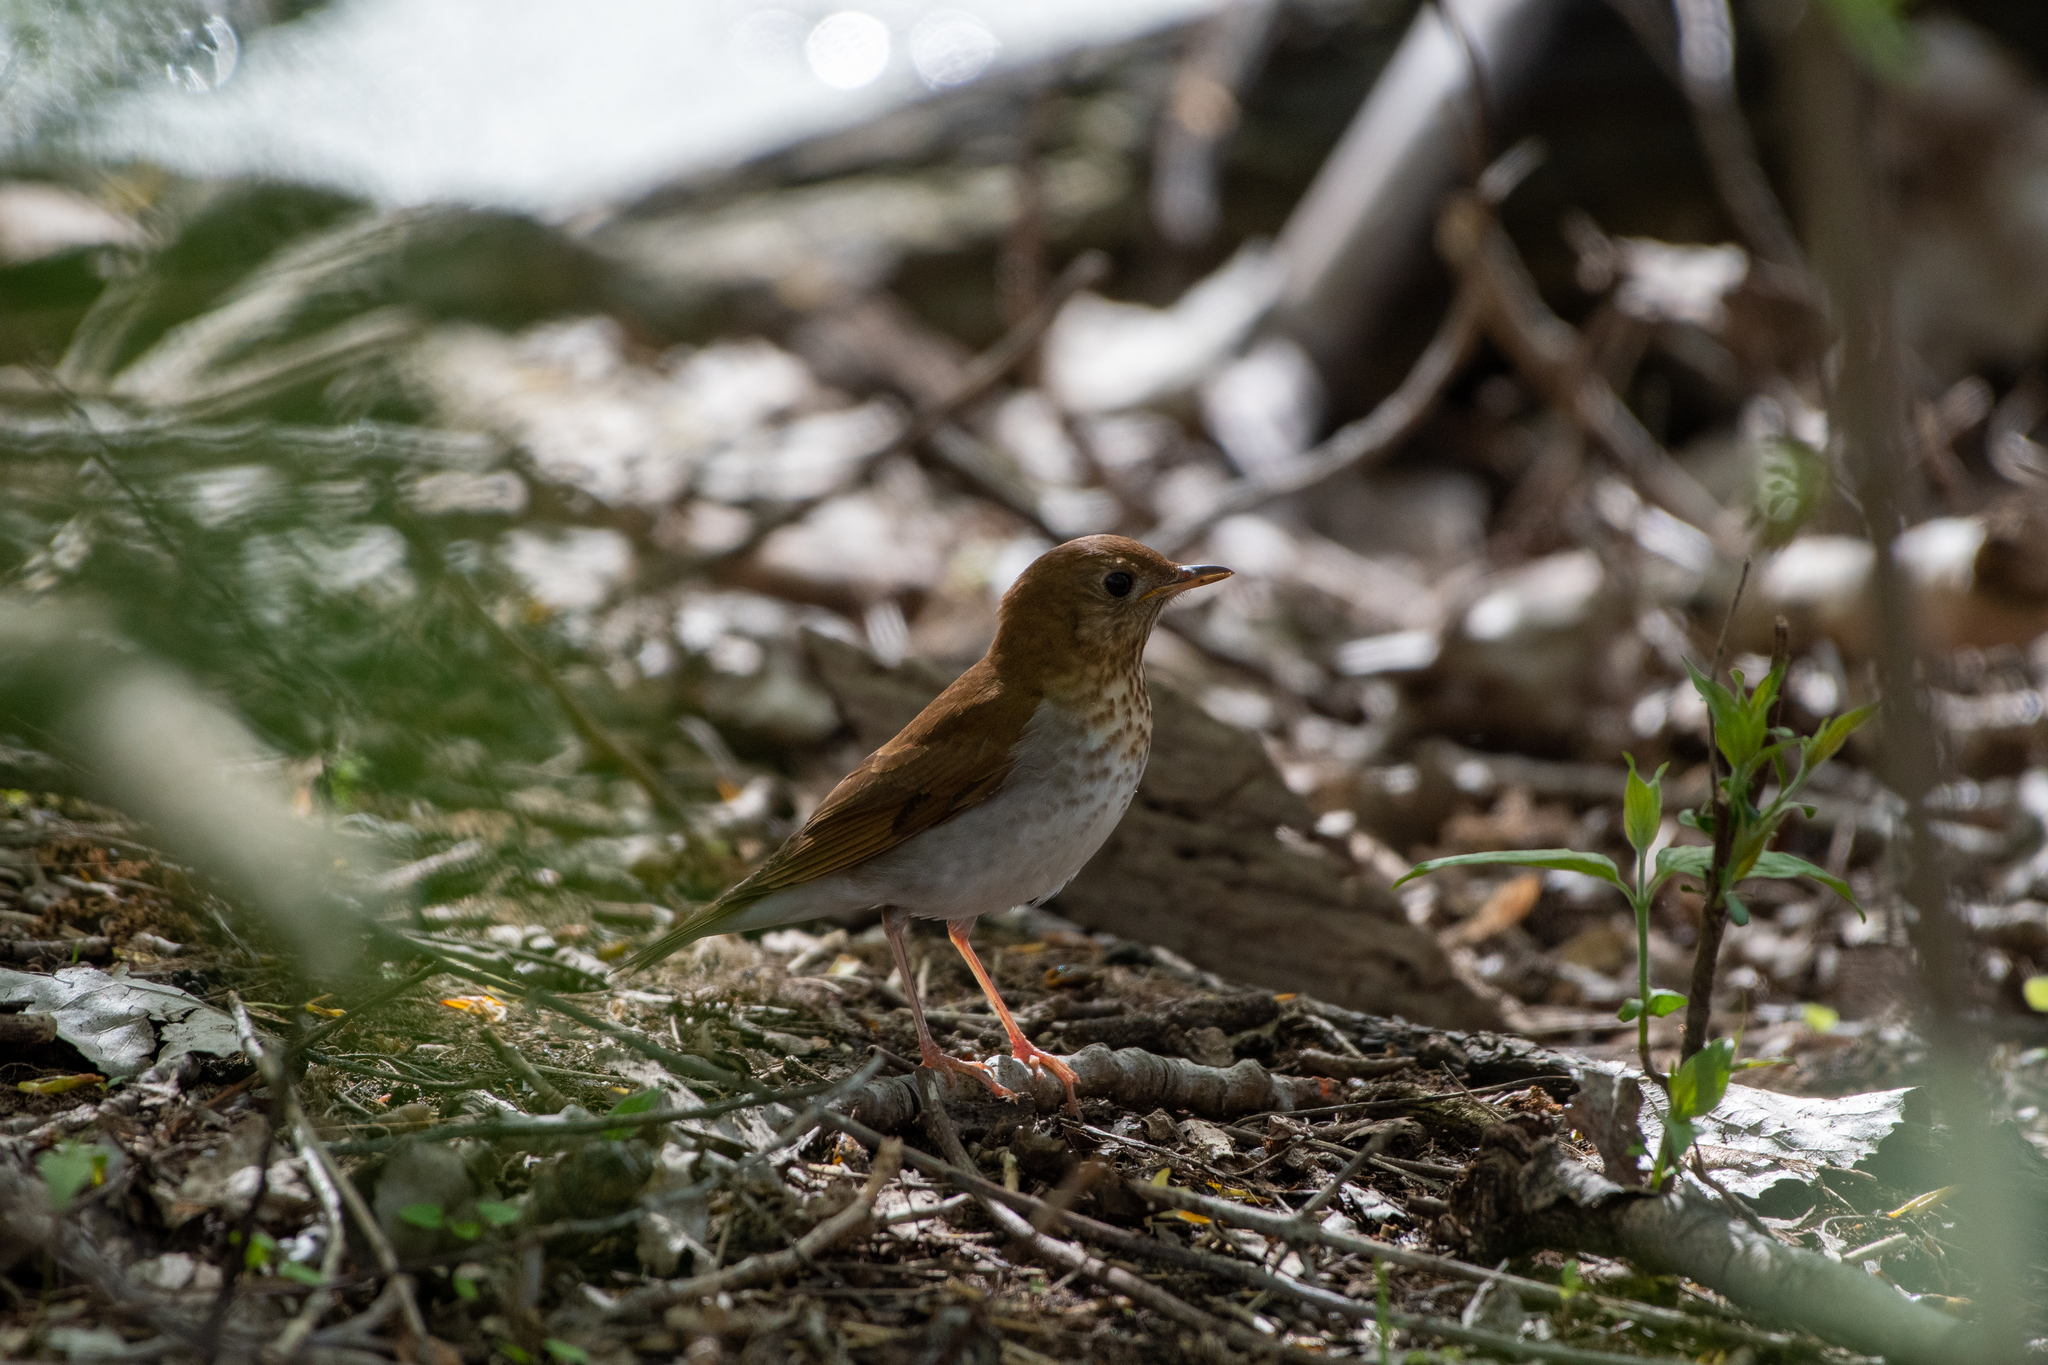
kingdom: Animalia
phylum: Chordata
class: Aves
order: Passeriformes
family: Turdidae
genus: Catharus
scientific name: Catharus fuscescens
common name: Veery
